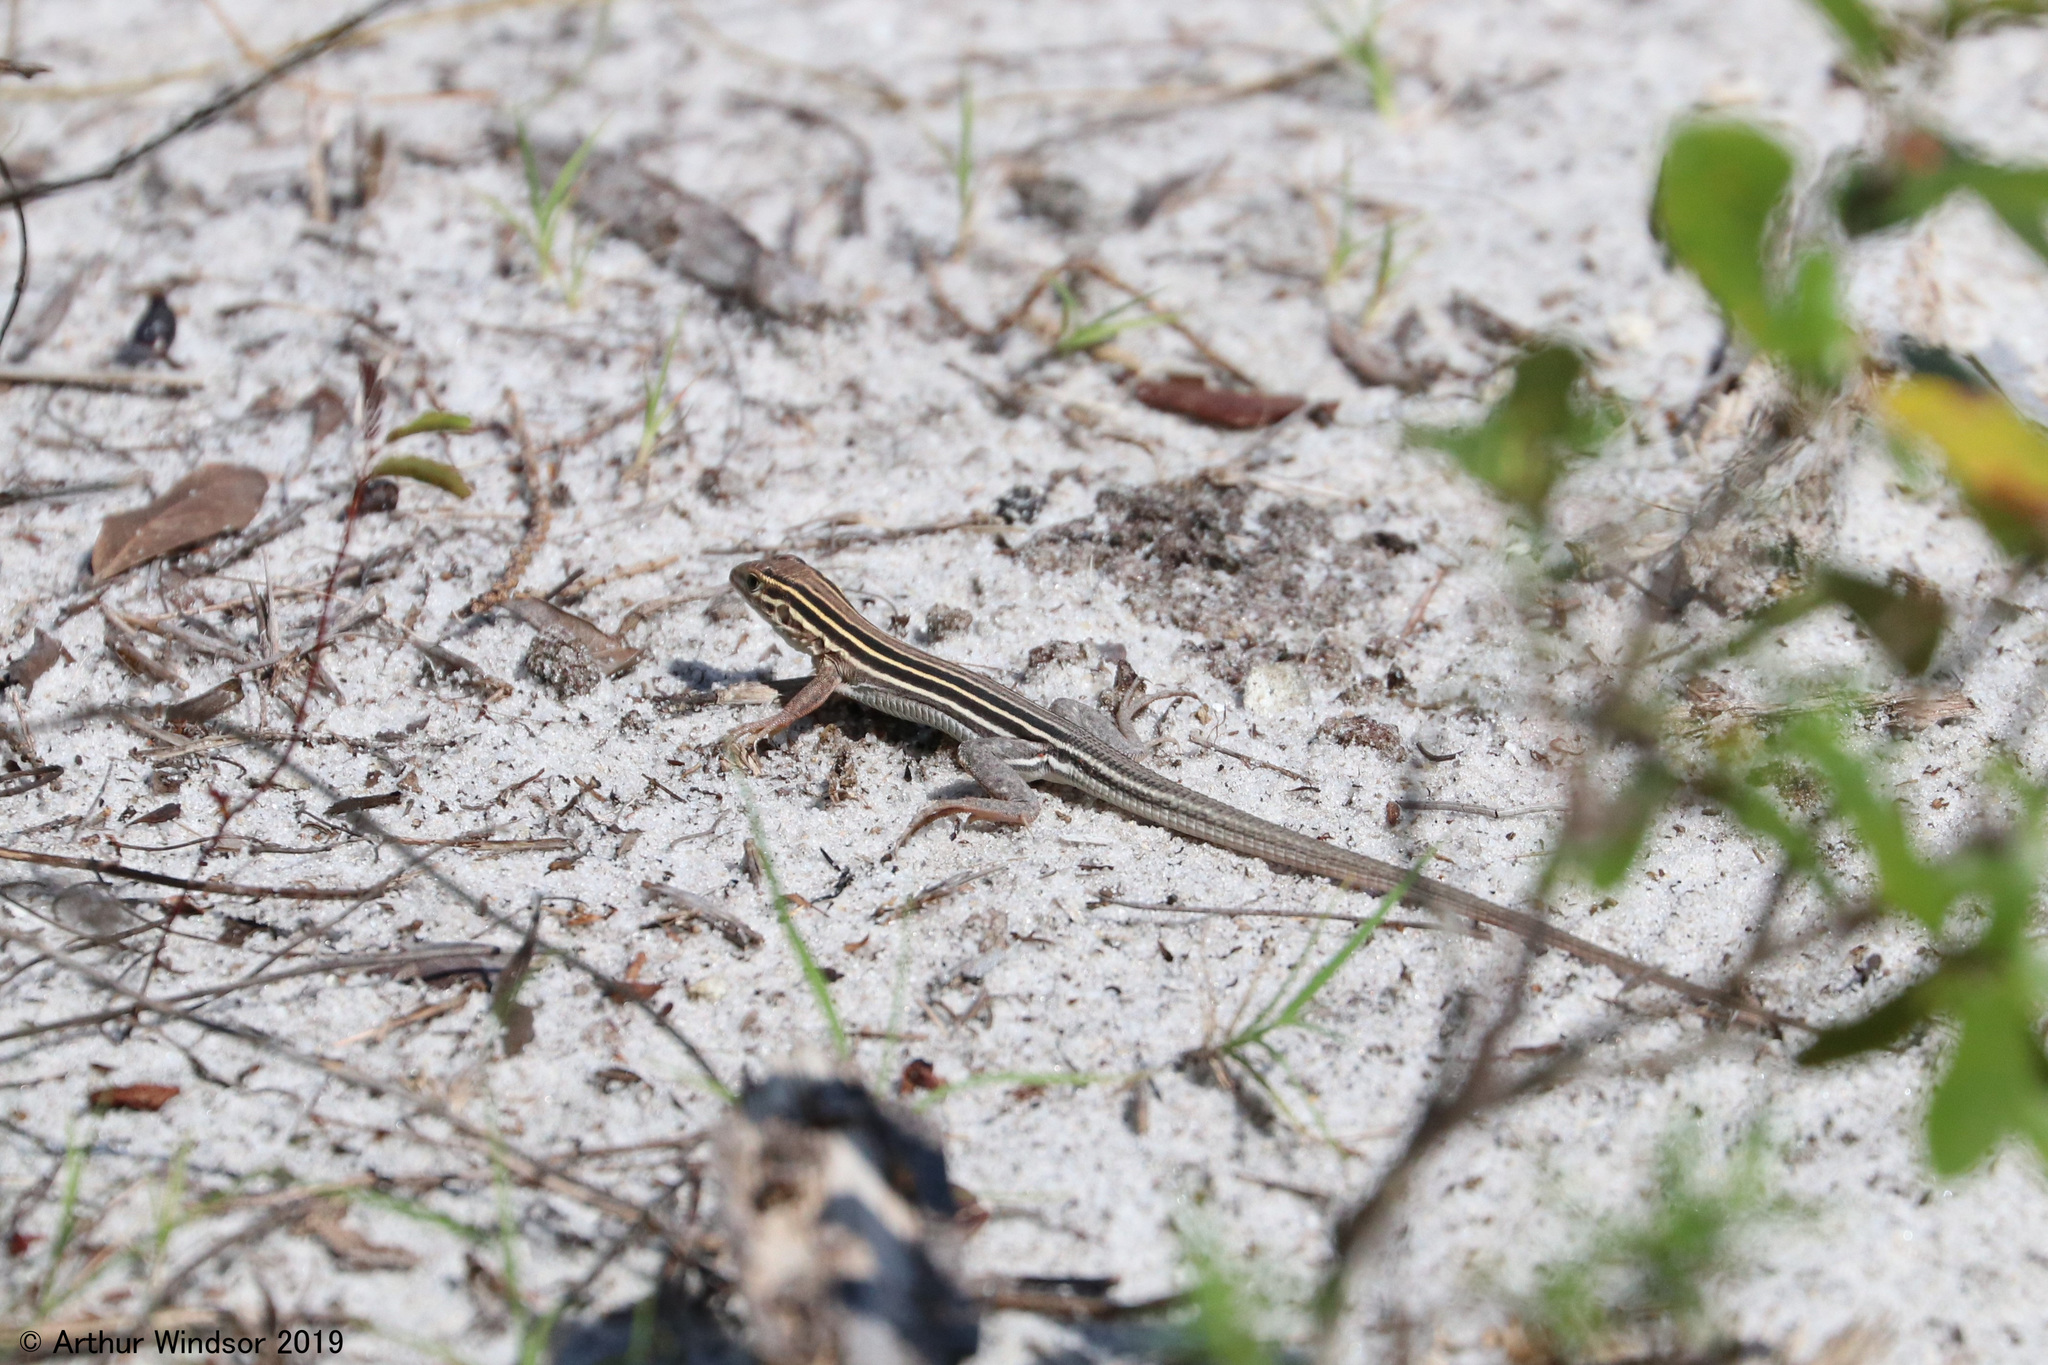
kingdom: Animalia
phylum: Chordata
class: Squamata
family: Teiidae
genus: Aspidoscelis
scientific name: Aspidoscelis sexlineatus
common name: Six-lined racerunner
